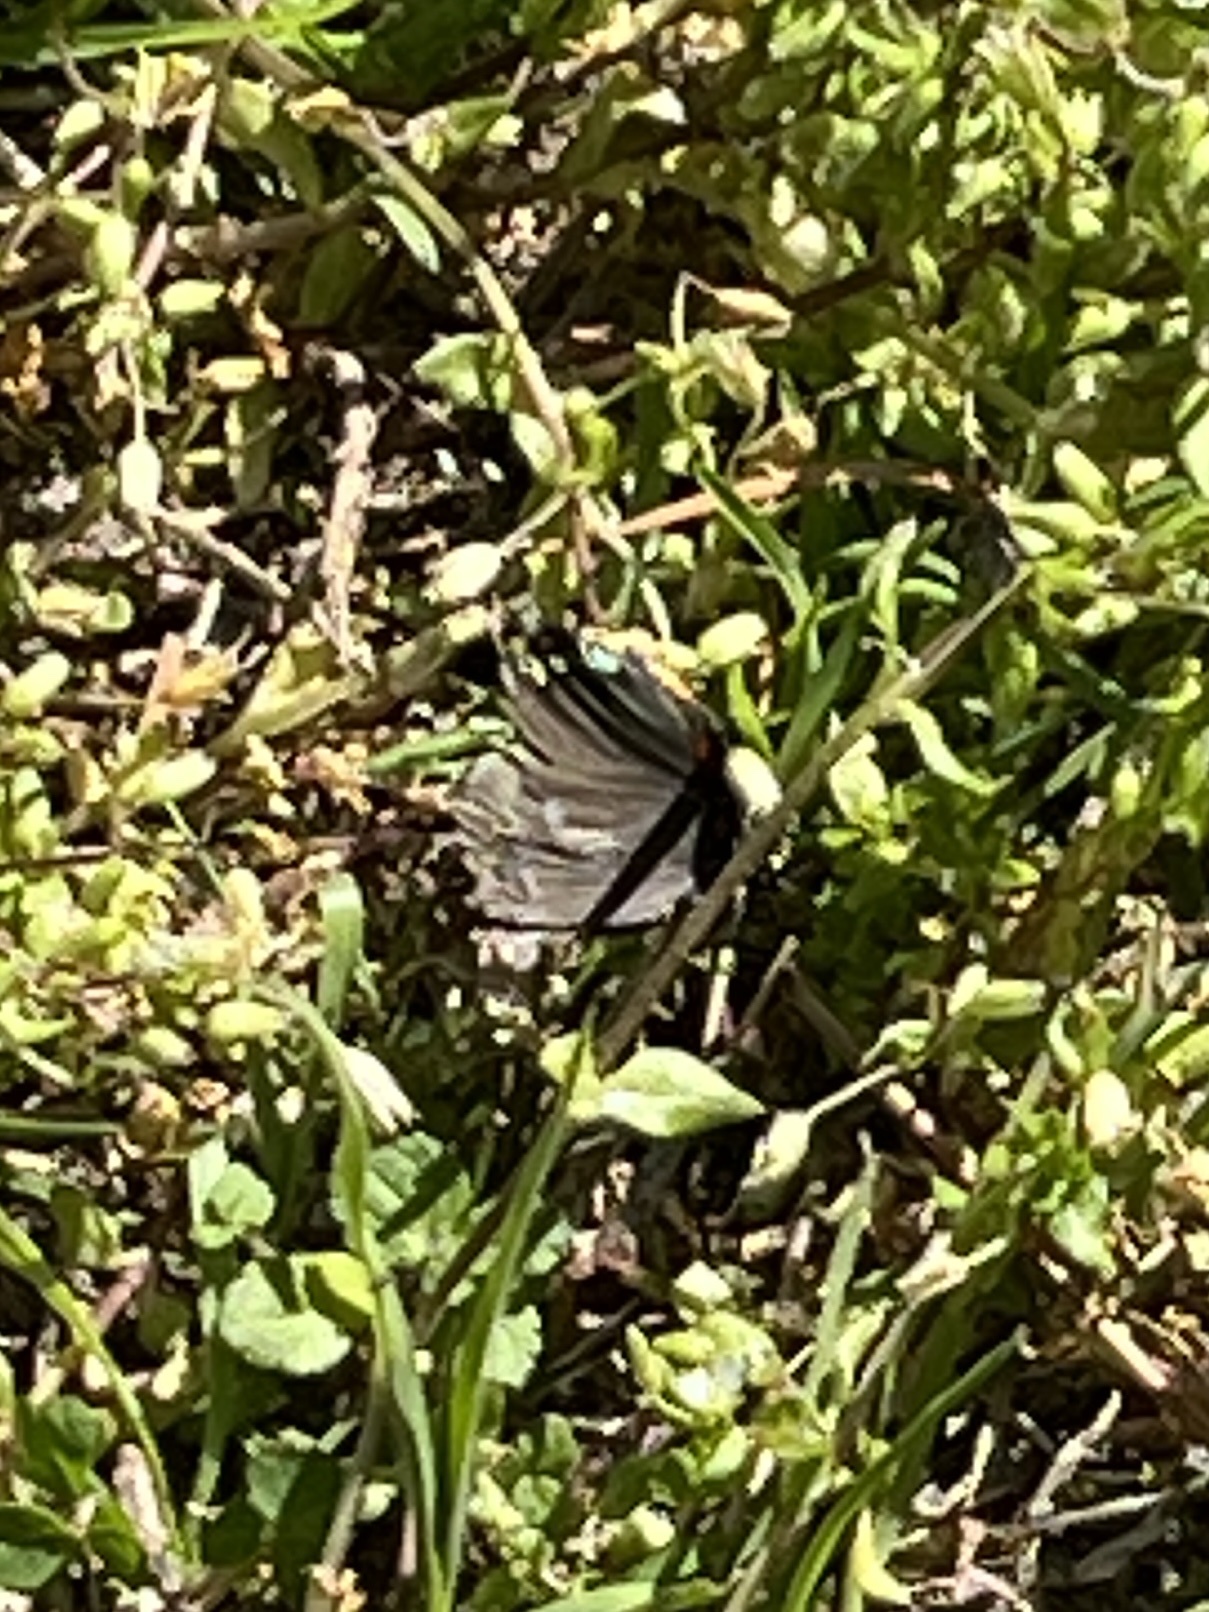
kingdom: Animalia
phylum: Arthropoda
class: Insecta
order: Lepidoptera
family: Lycaenidae
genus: Atlides
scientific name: Atlides halesus
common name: Great purple hairstreak
